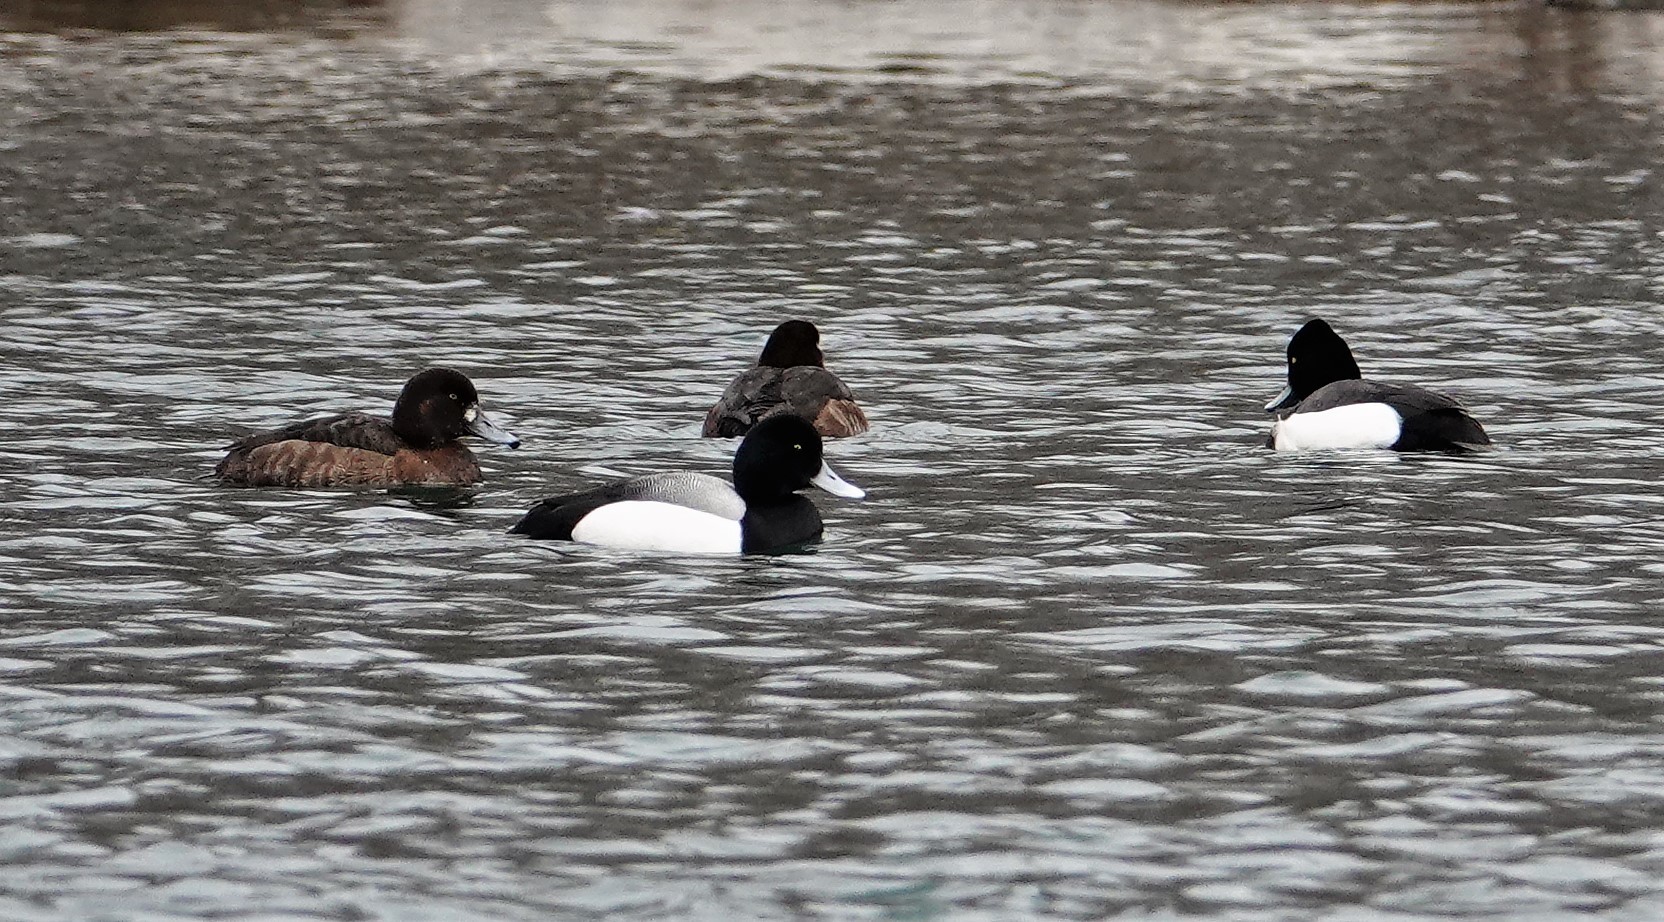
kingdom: Animalia
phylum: Chordata
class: Aves
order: Anseriformes
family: Anatidae
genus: Aythya
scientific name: Aythya
